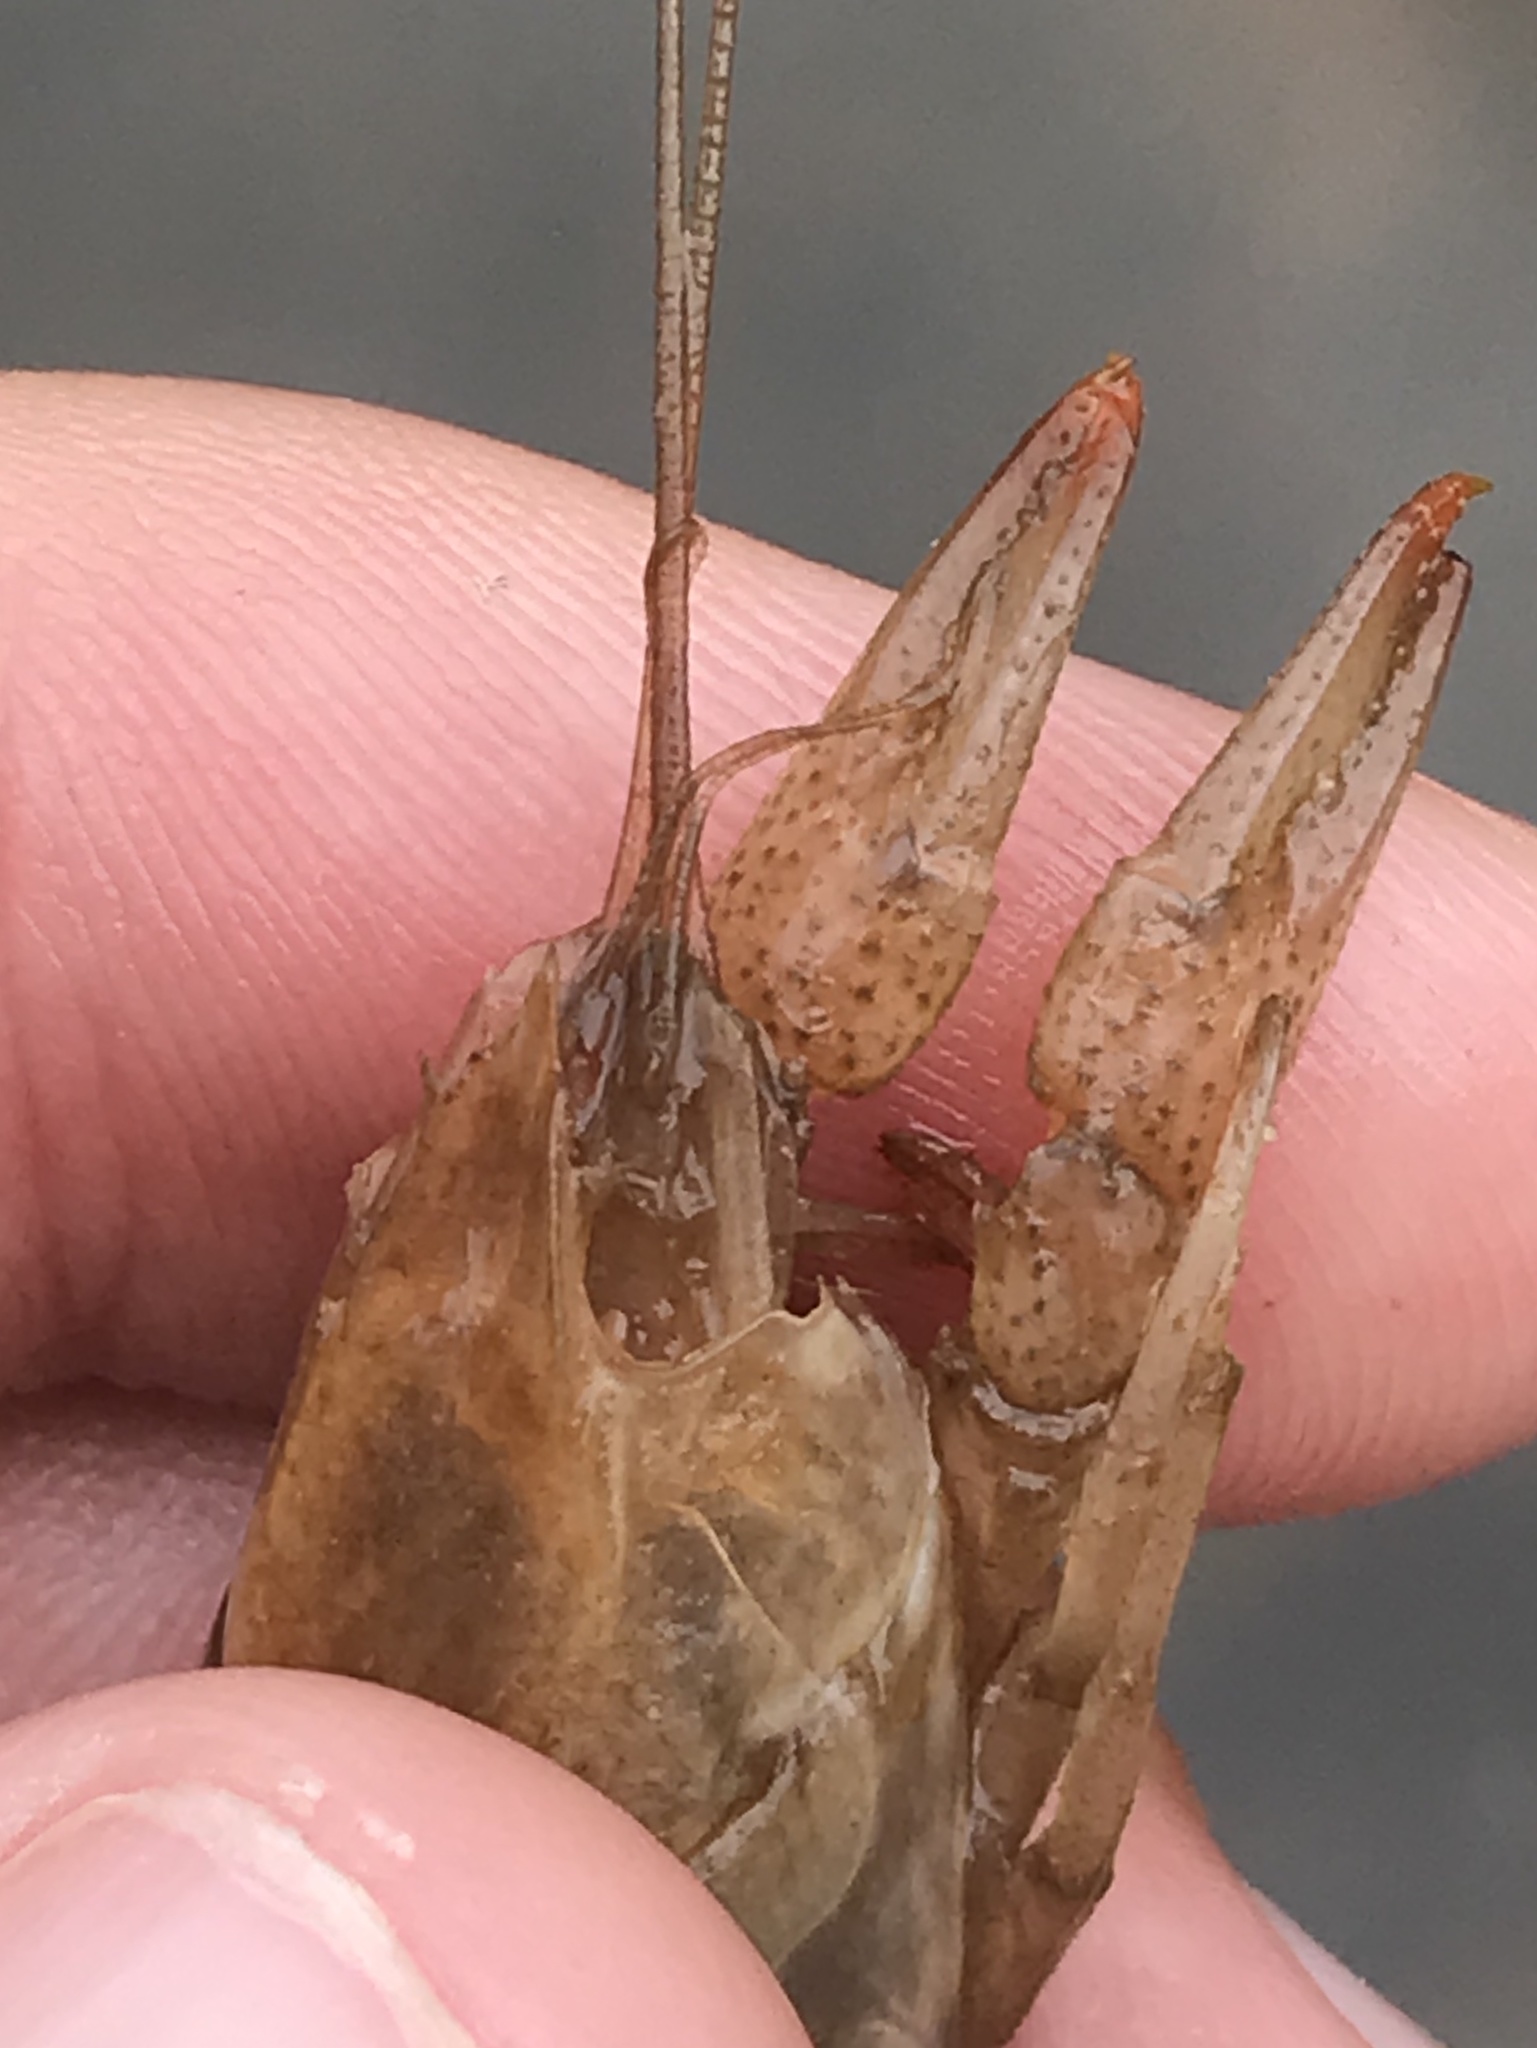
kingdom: Animalia
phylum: Arthropoda
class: Malacostraca
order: Decapoda
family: Cambaridae
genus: Procambarus
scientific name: Procambarus simulans
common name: Southern plains crayfish
